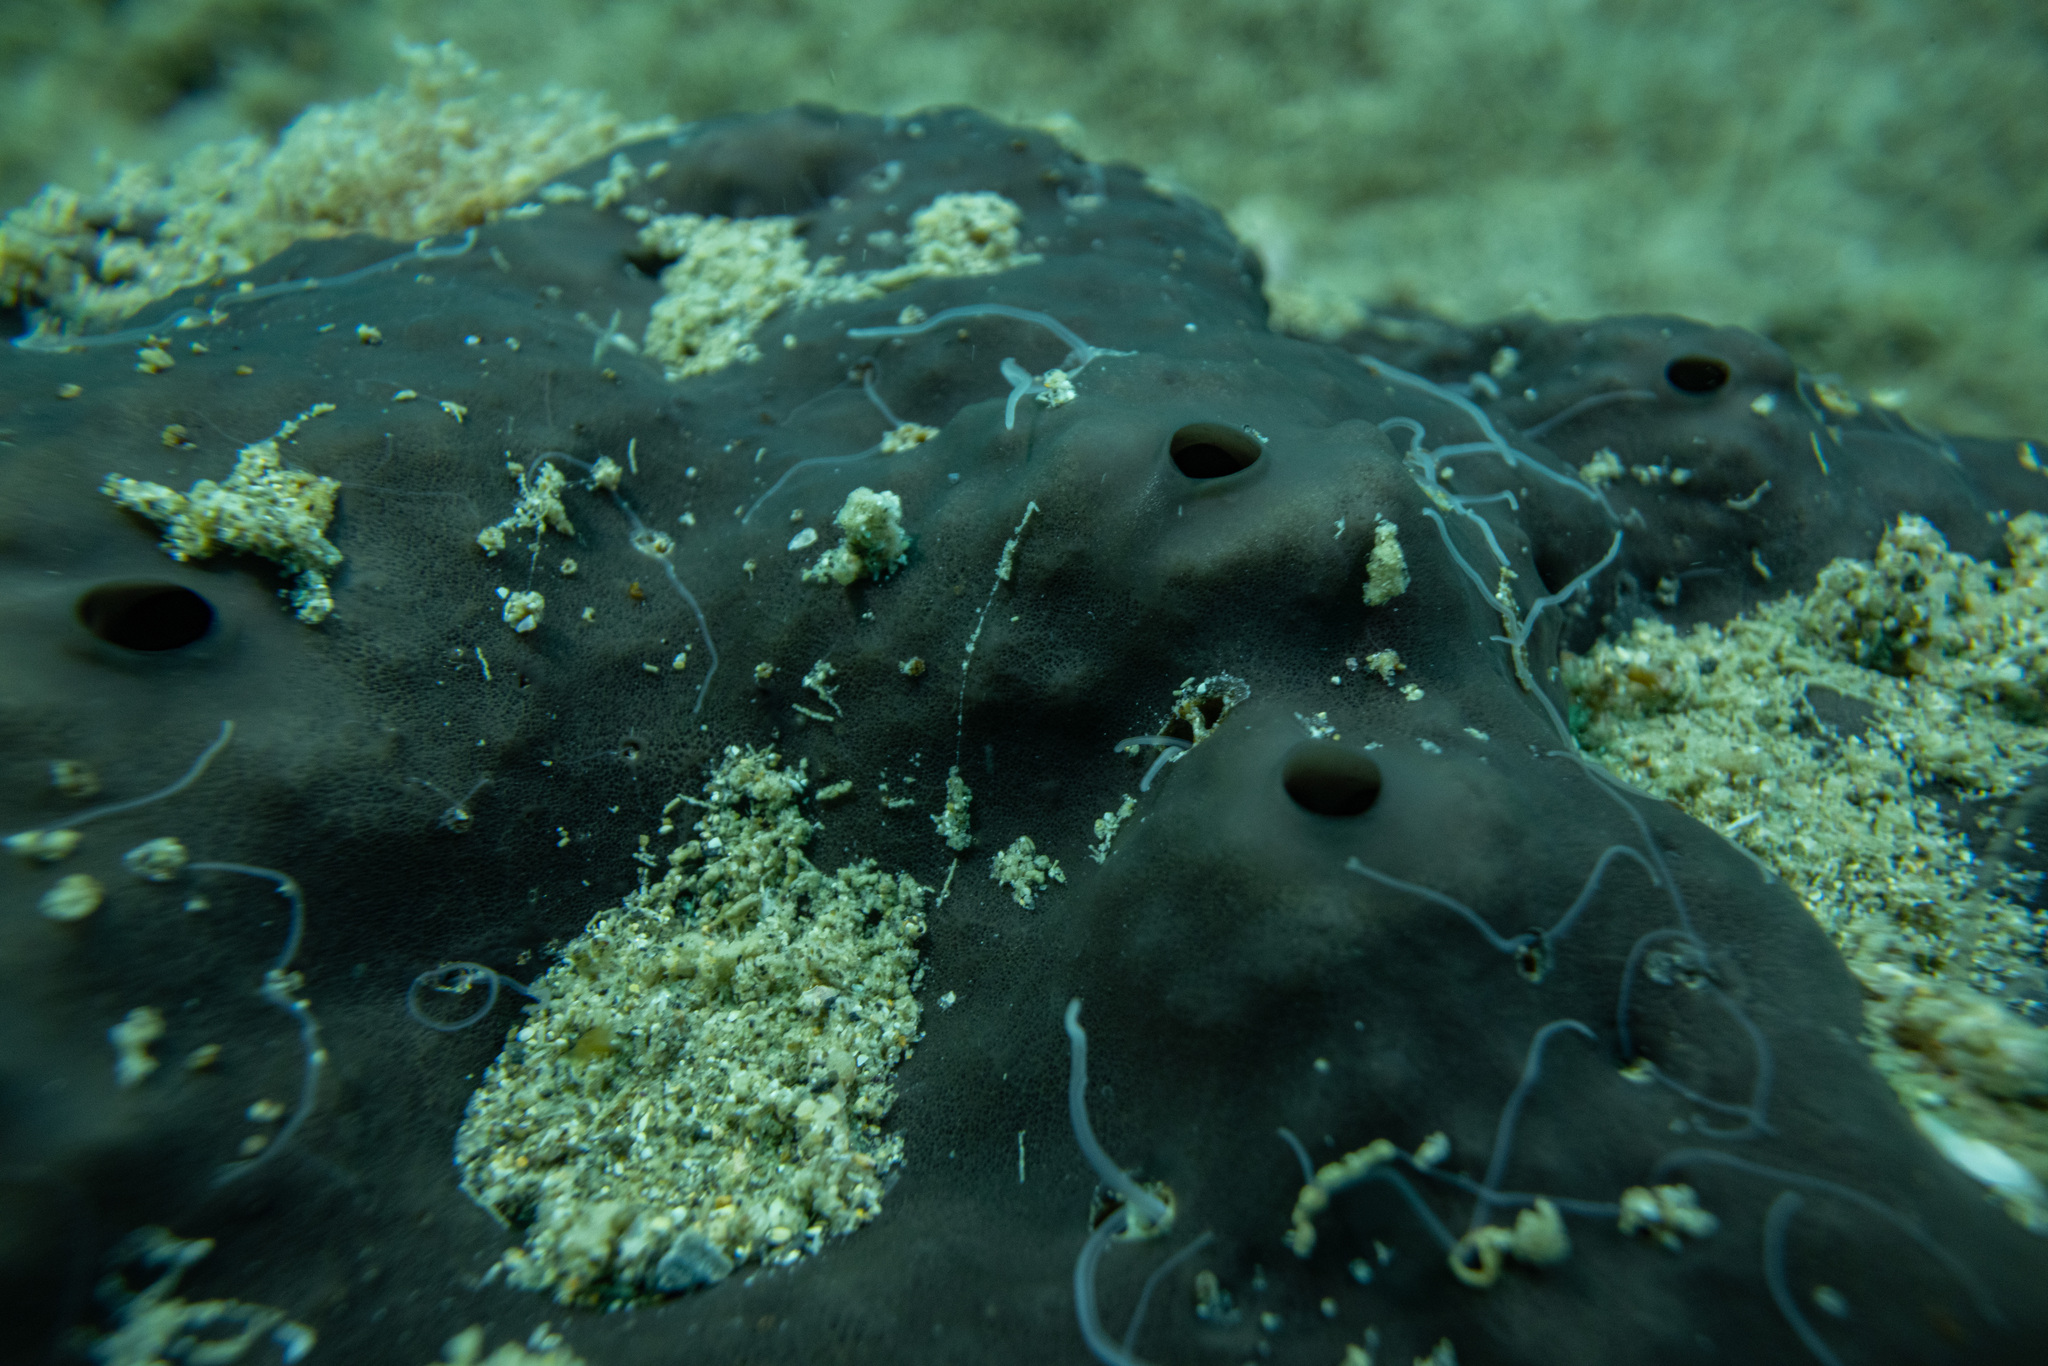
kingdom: Animalia
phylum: Porifera
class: Demospongiae
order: Dictyoceratida
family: Irciniidae
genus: Psammocinia
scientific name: Psammocinia perforodosa
